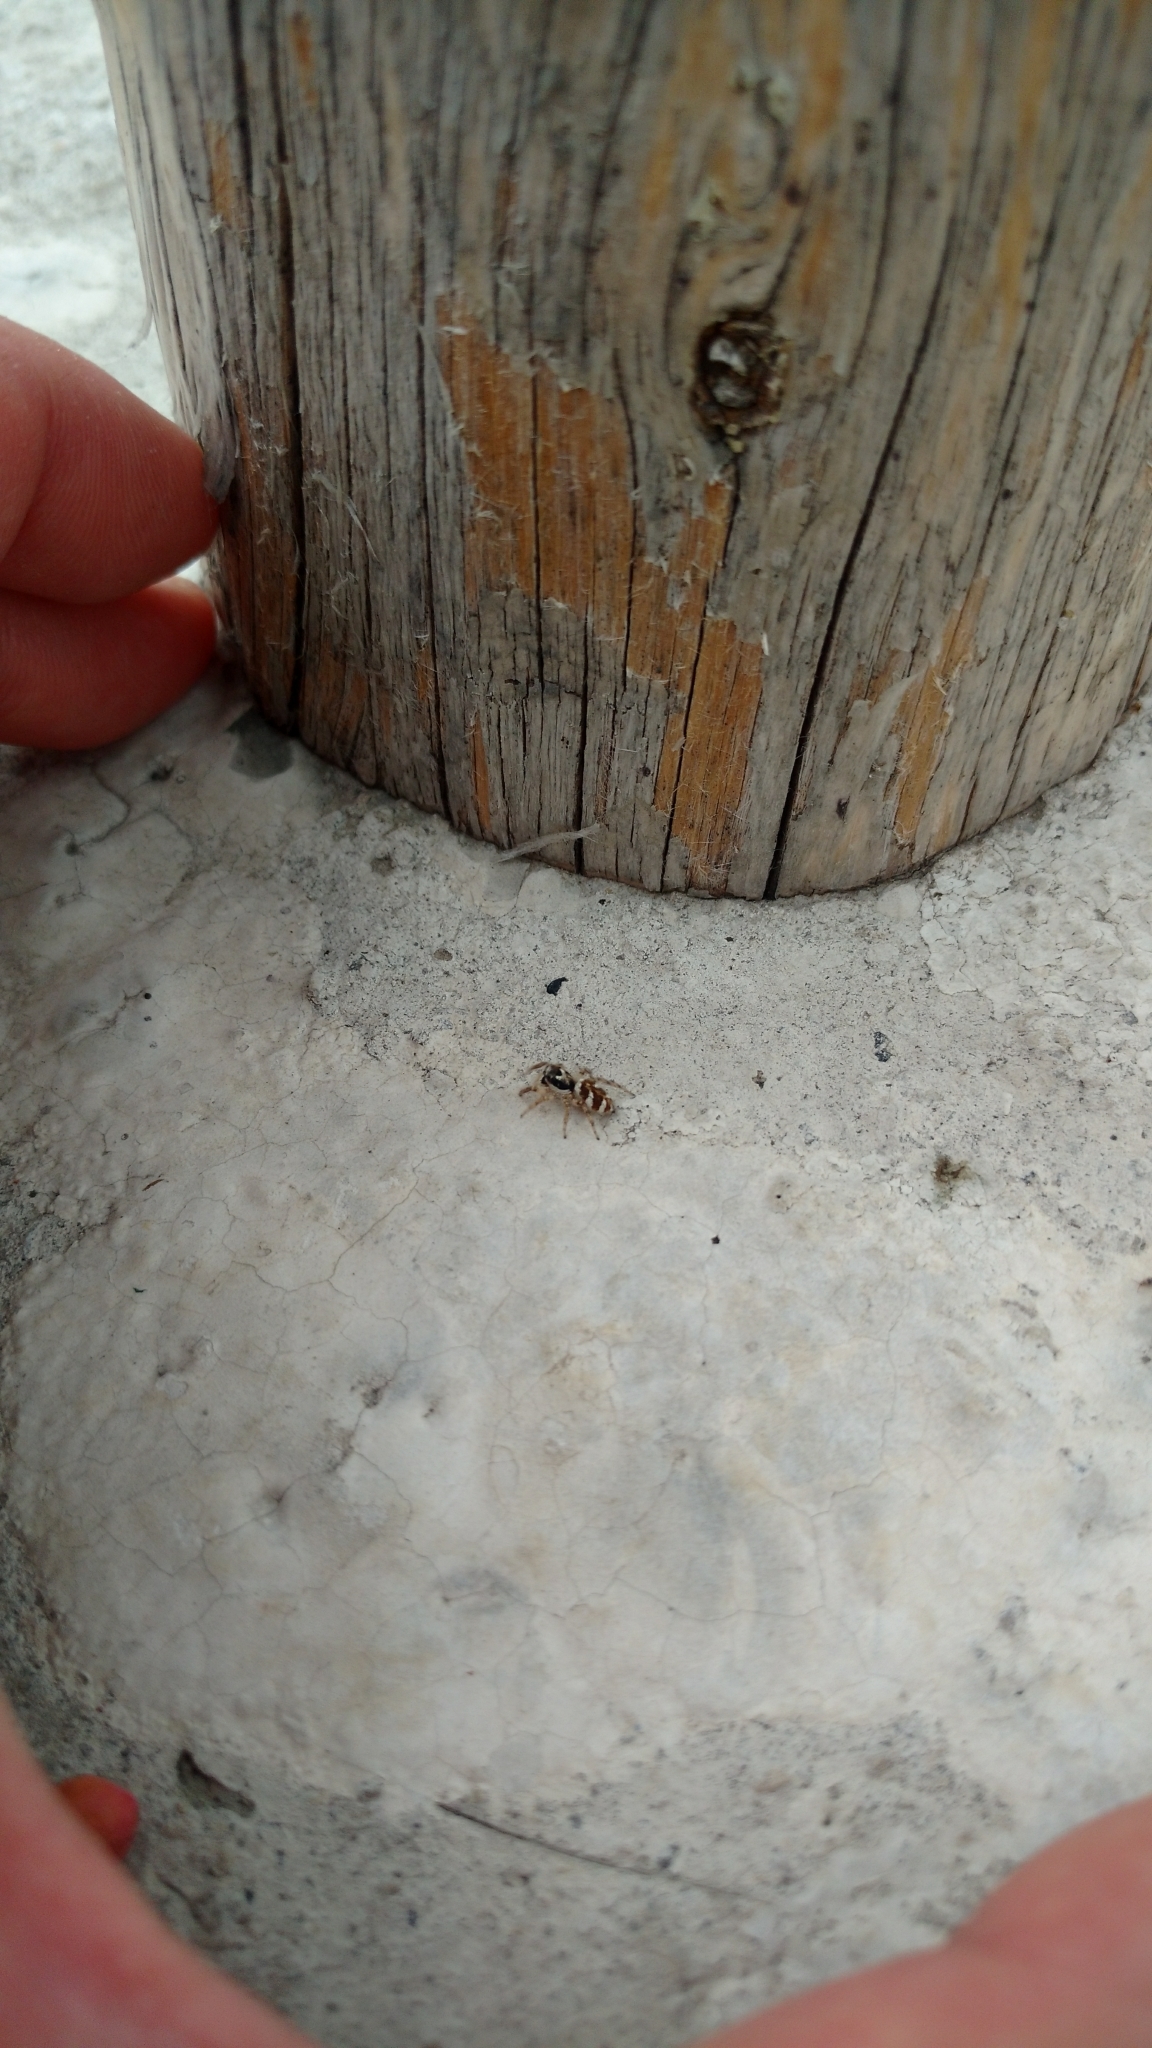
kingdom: Animalia
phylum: Arthropoda
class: Arachnida
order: Araneae
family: Salticidae
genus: Salticus
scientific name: Salticus scenicus
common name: Zebra jumper
